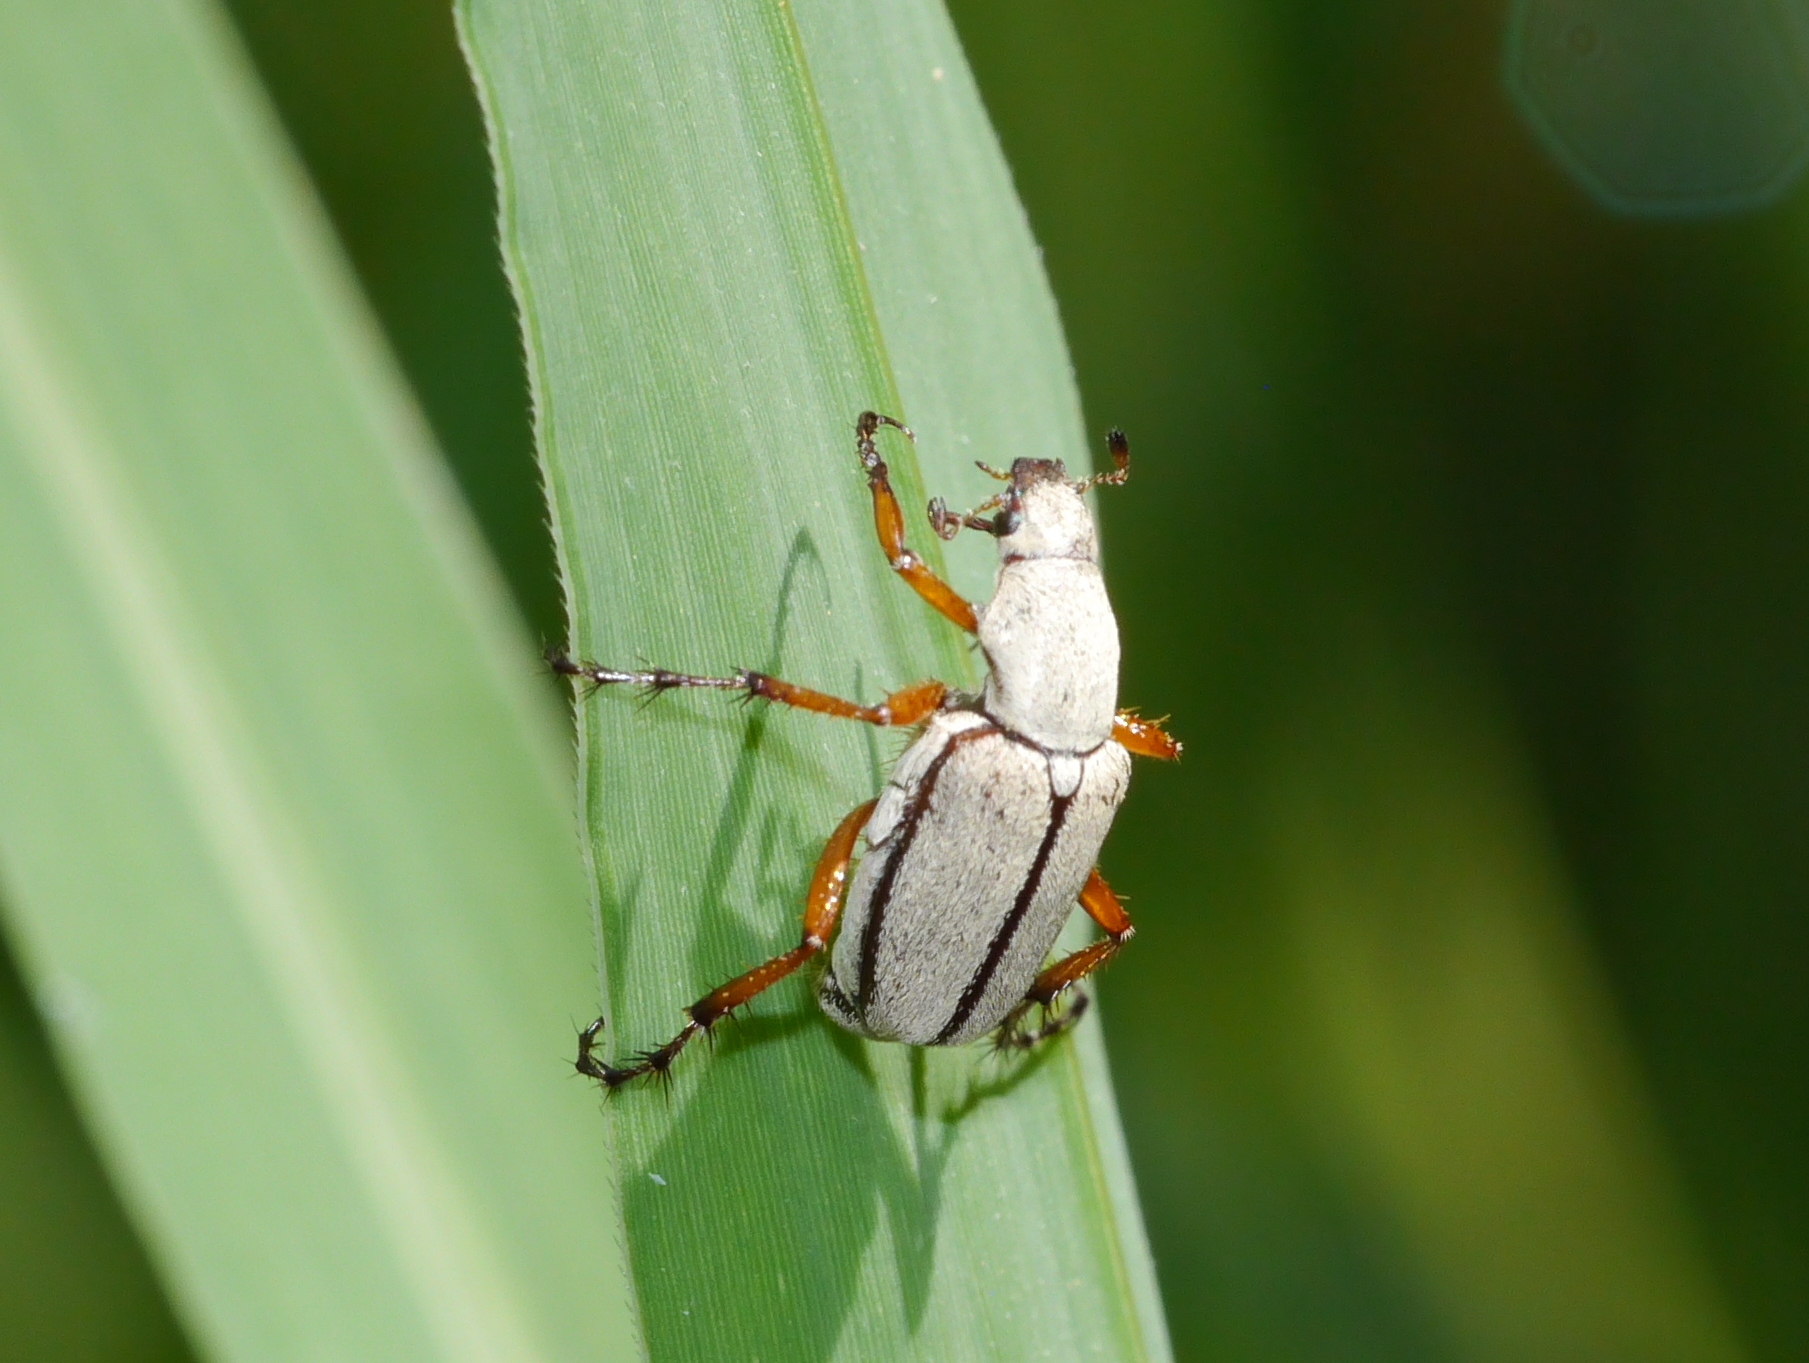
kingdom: Animalia
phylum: Arthropoda
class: Insecta
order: Coleoptera
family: Scarabaeidae
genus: Macrodactylus
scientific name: Macrodactylus uniformis
